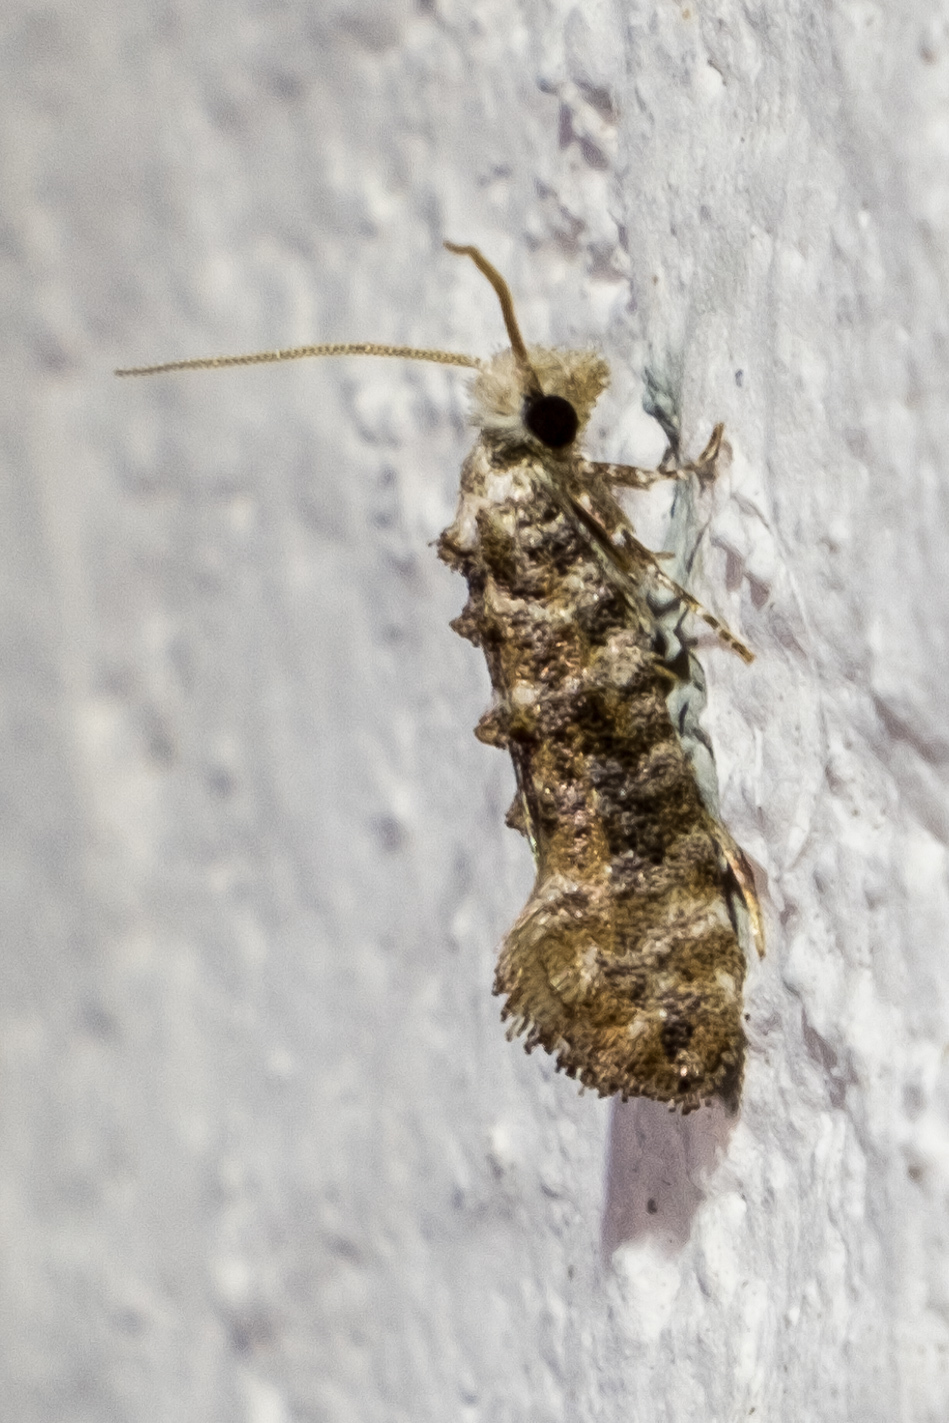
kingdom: Animalia
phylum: Arthropoda
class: Insecta
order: Lepidoptera
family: Tineidae
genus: Xylesthia
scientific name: Xylesthia pruniramiella
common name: Clemens' bark moth
